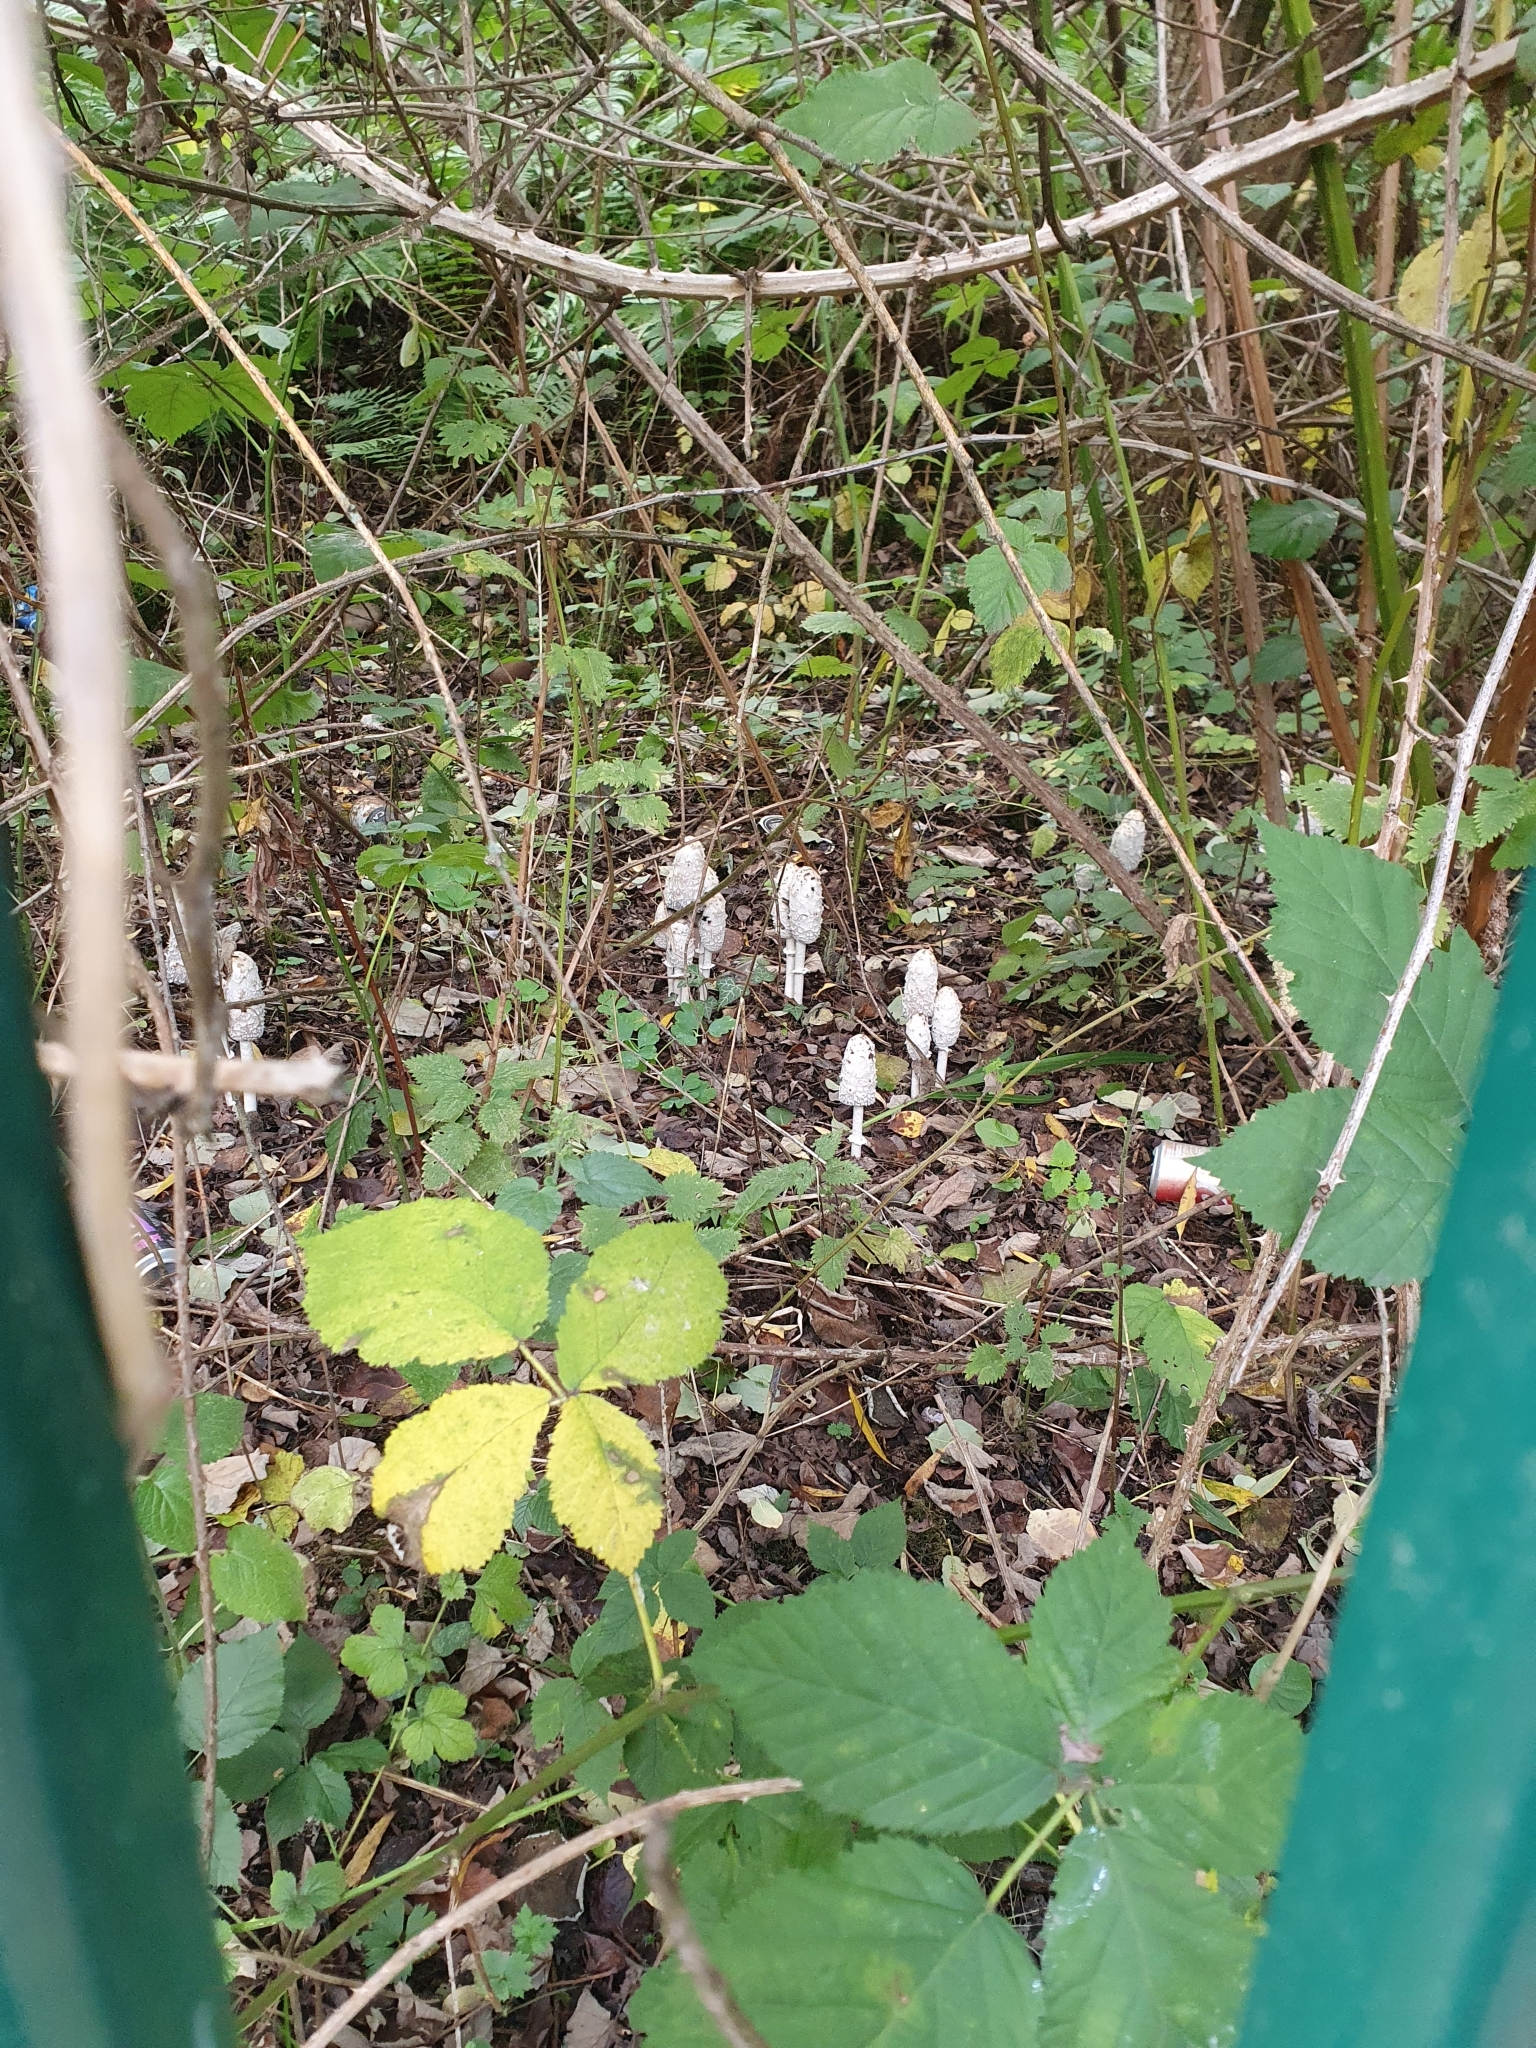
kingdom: Fungi
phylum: Basidiomycota
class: Agaricomycetes
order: Agaricales
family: Agaricaceae
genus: Coprinus
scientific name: Coprinus comatus
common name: Lawyer's wig
